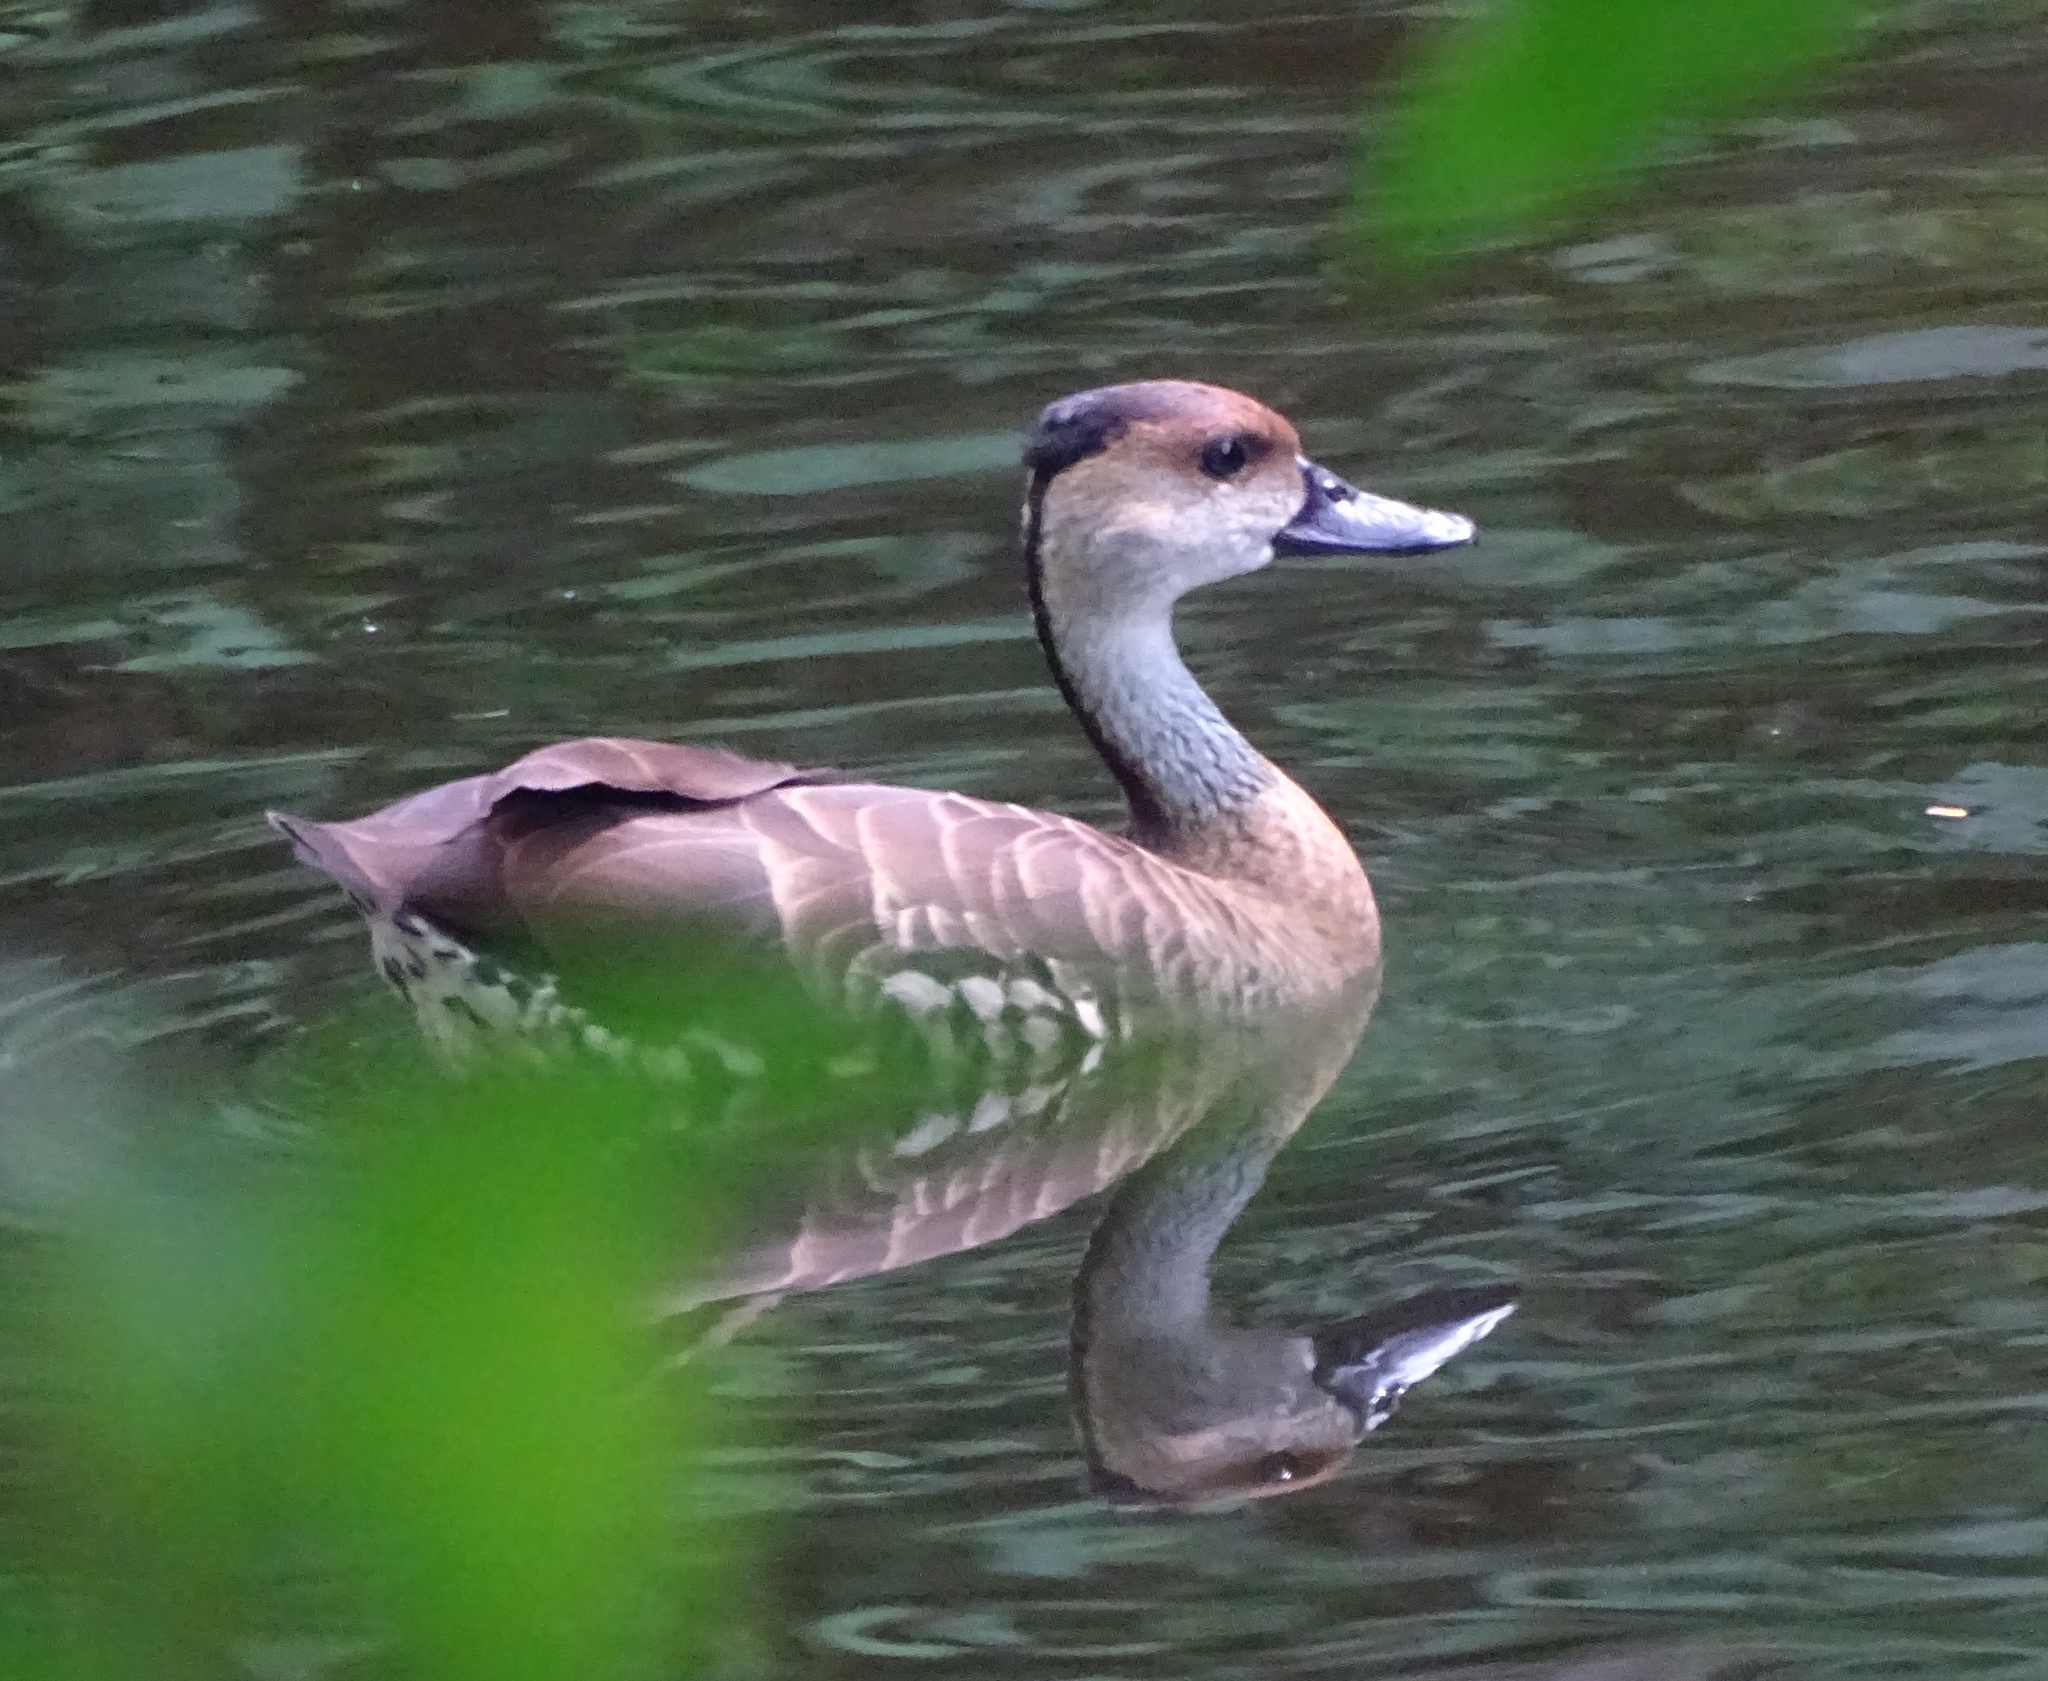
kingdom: Animalia
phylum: Chordata
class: Aves
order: Anseriformes
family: Anatidae
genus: Dendrocygna
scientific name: Dendrocygna arborea
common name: West indian whistling duck
